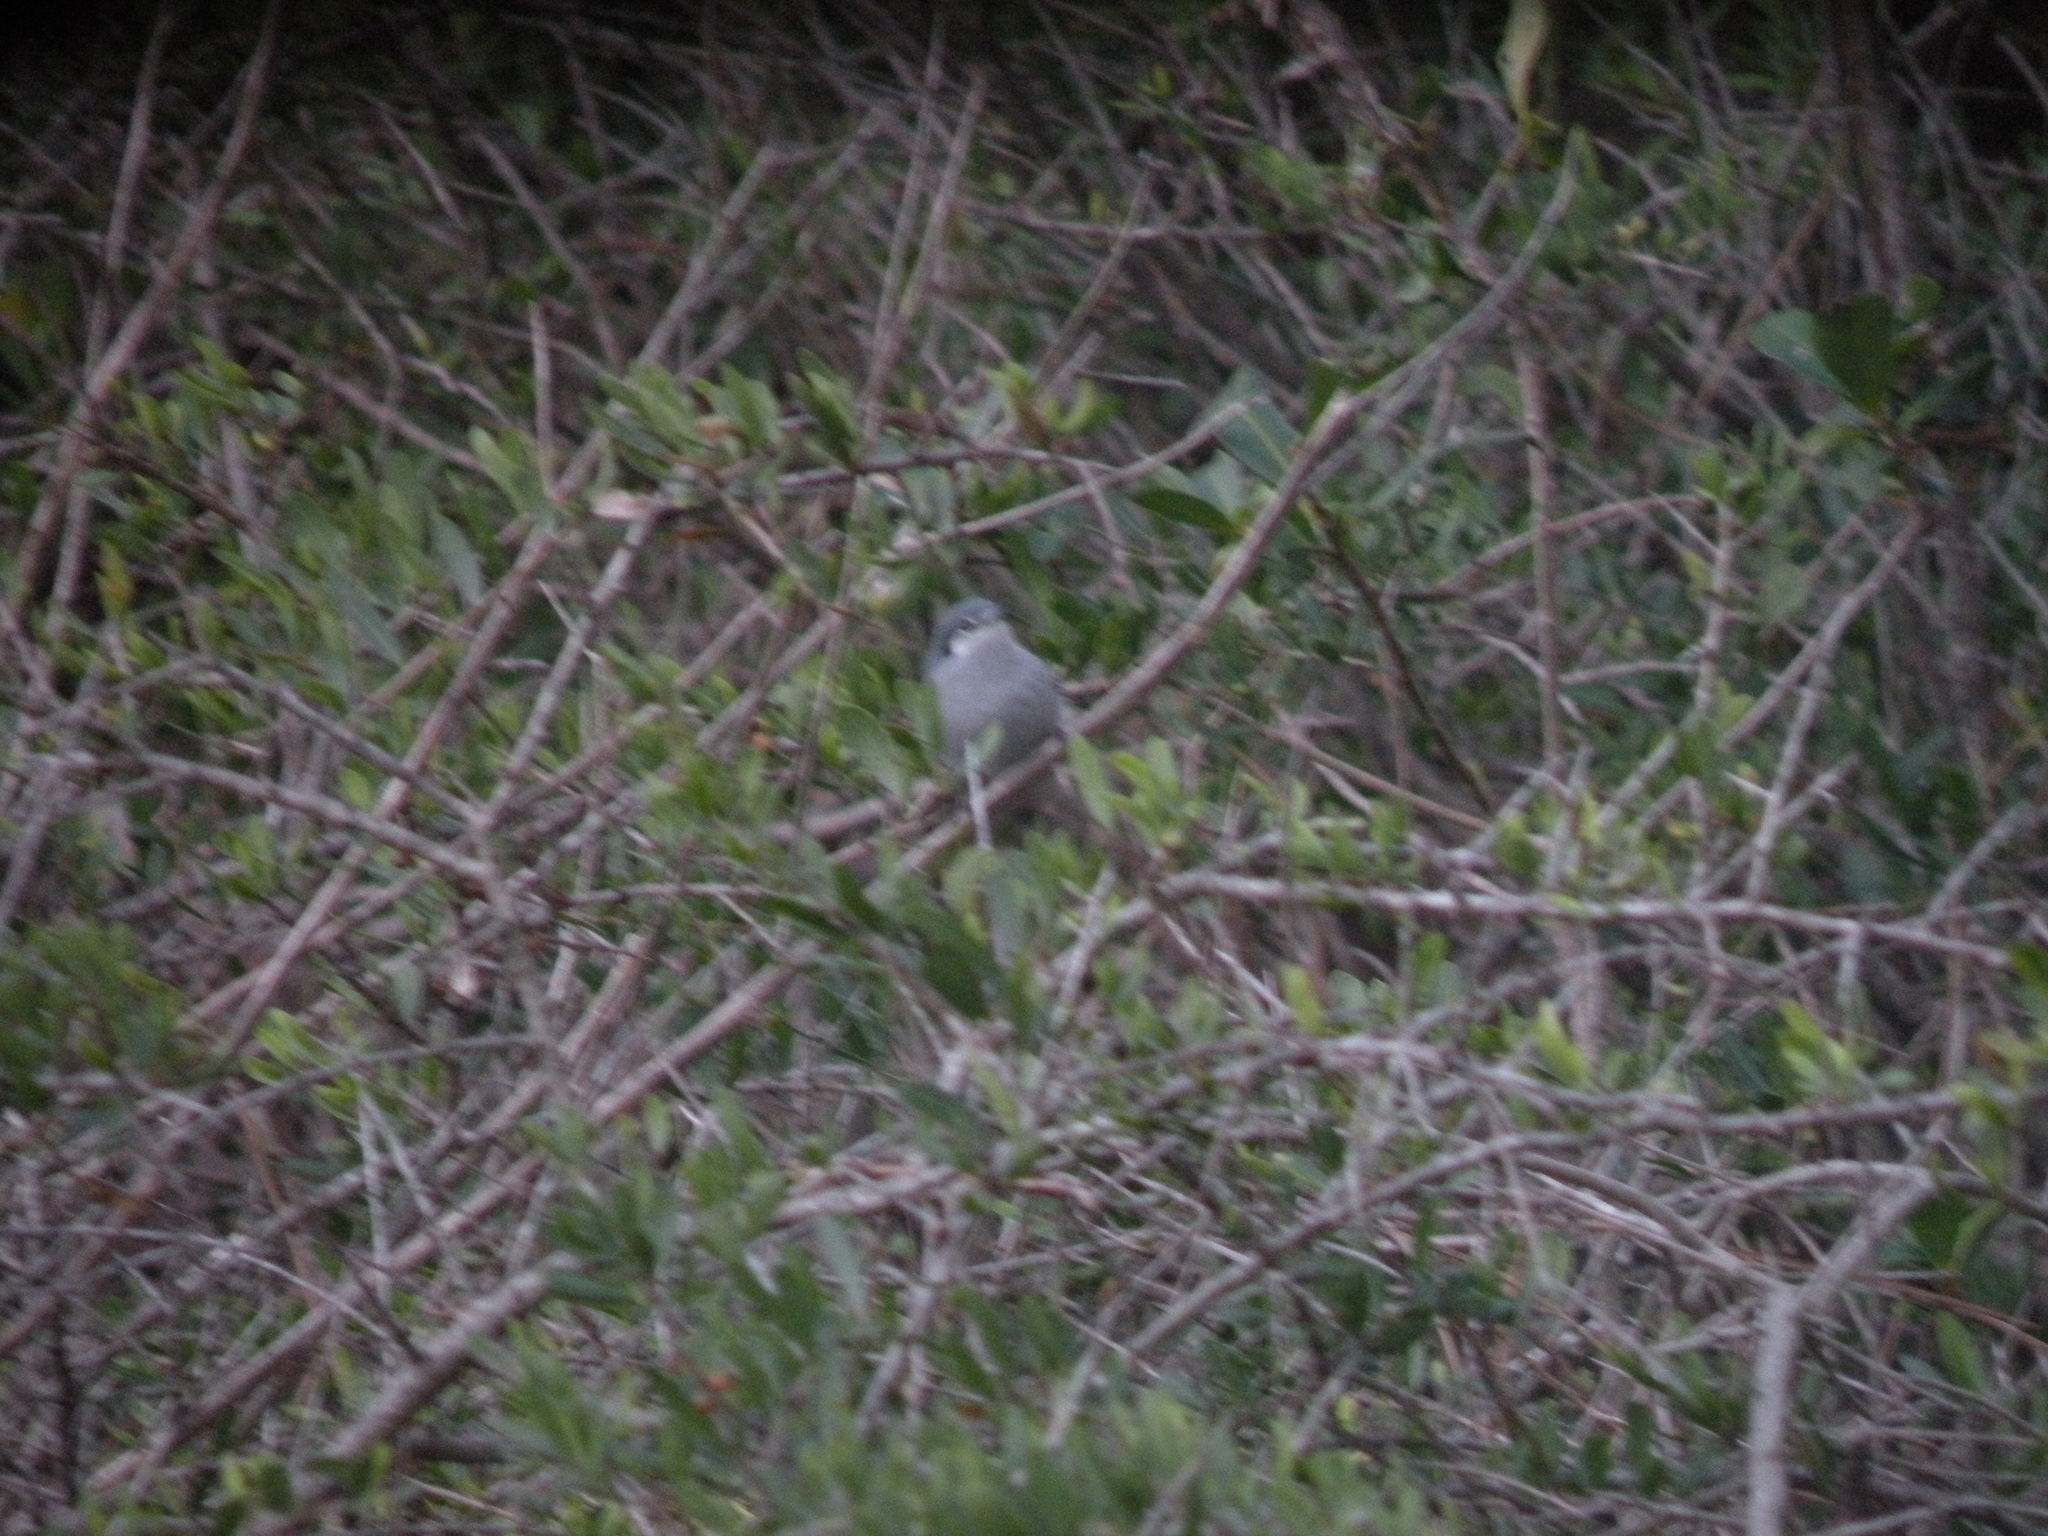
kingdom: Animalia
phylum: Chordata
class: Aves
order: Passeriformes
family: Polioptilidae
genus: Polioptila
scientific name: Polioptila dumicola
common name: Masked gnatcatcher
